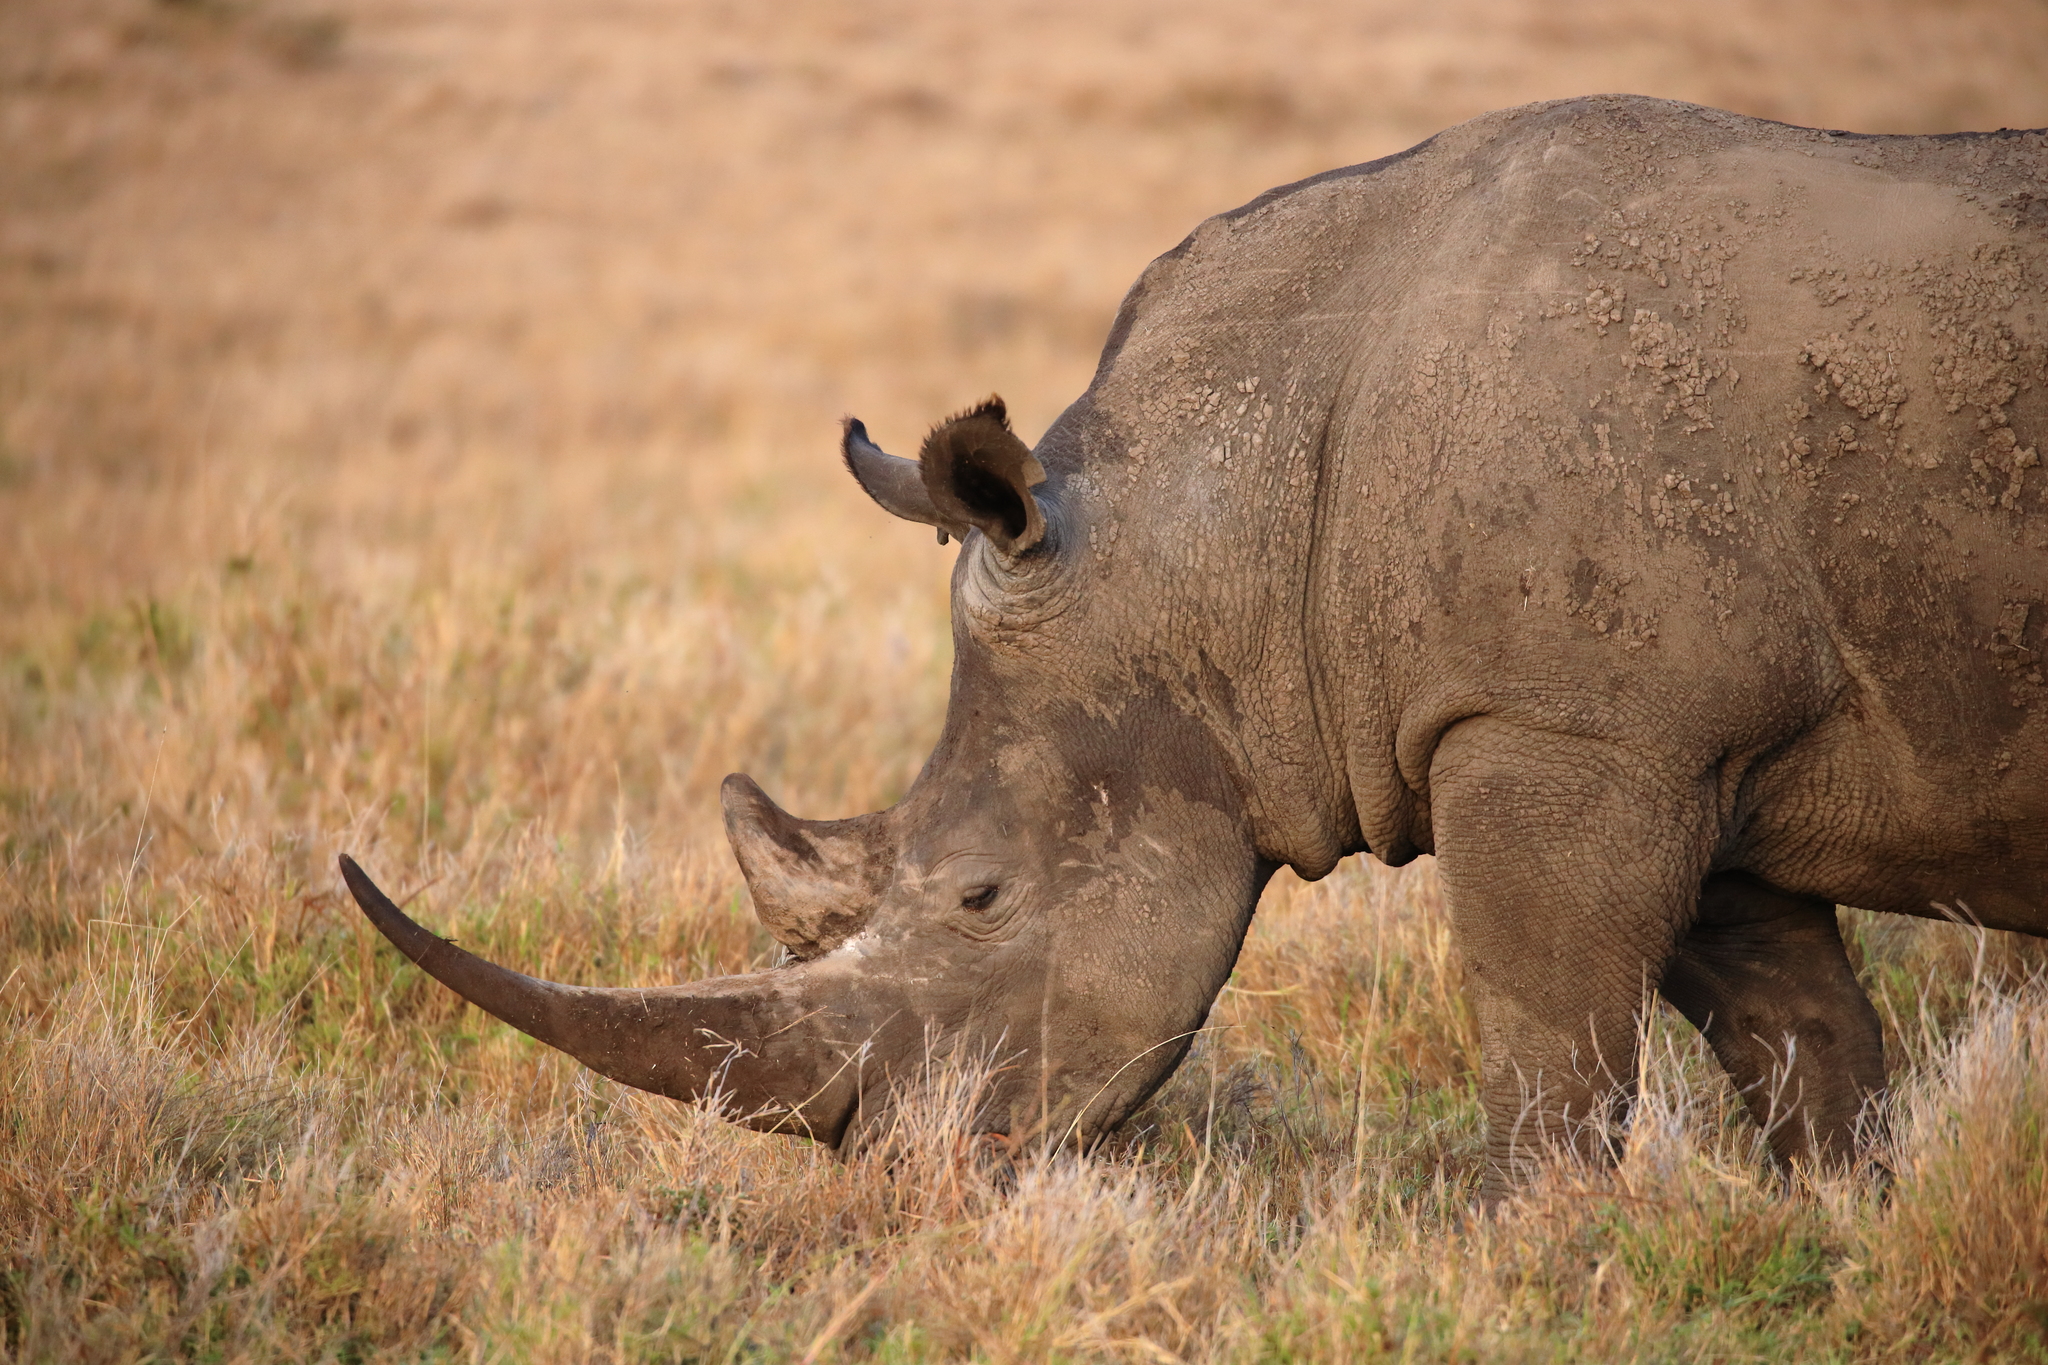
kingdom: Animalia
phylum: Chordata
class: Mammalia
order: Perissodactyla
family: Rhinocerotidae
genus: Ceratotherium
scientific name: Ceratotherium simum
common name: White rhinoceros
